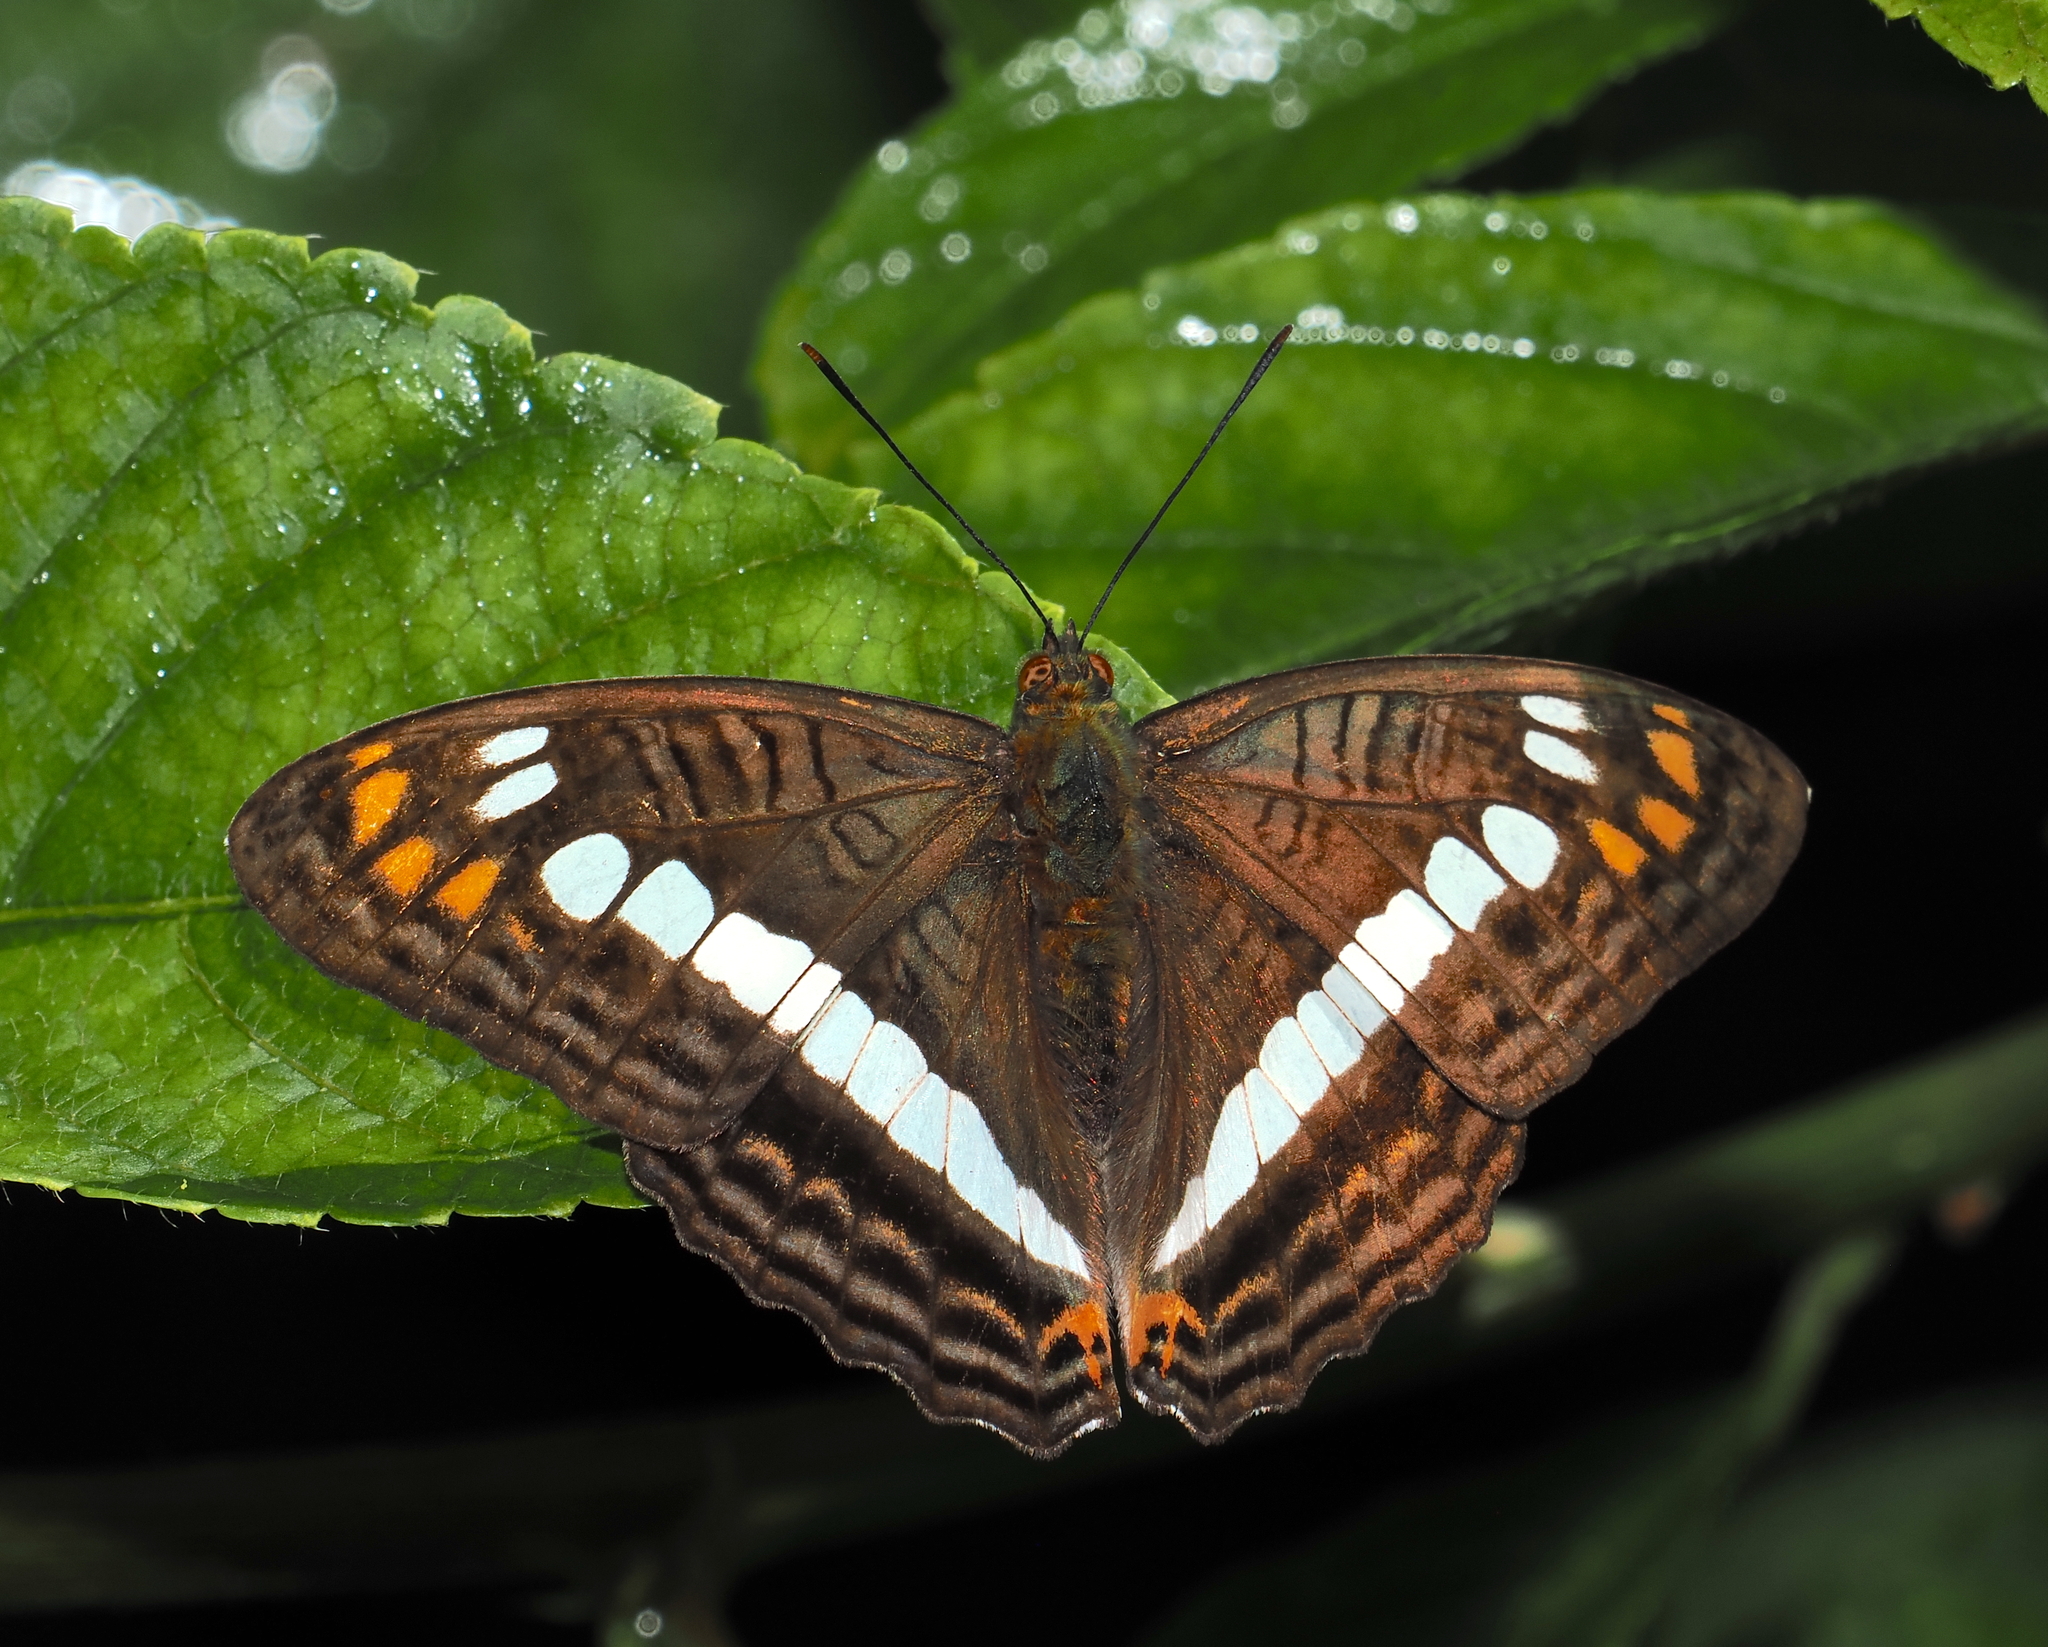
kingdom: Animalia
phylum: Arthropoda
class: Insecta
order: Lepidoptera
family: Nymphalidae
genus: Limenitis
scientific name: Limenitis alala
